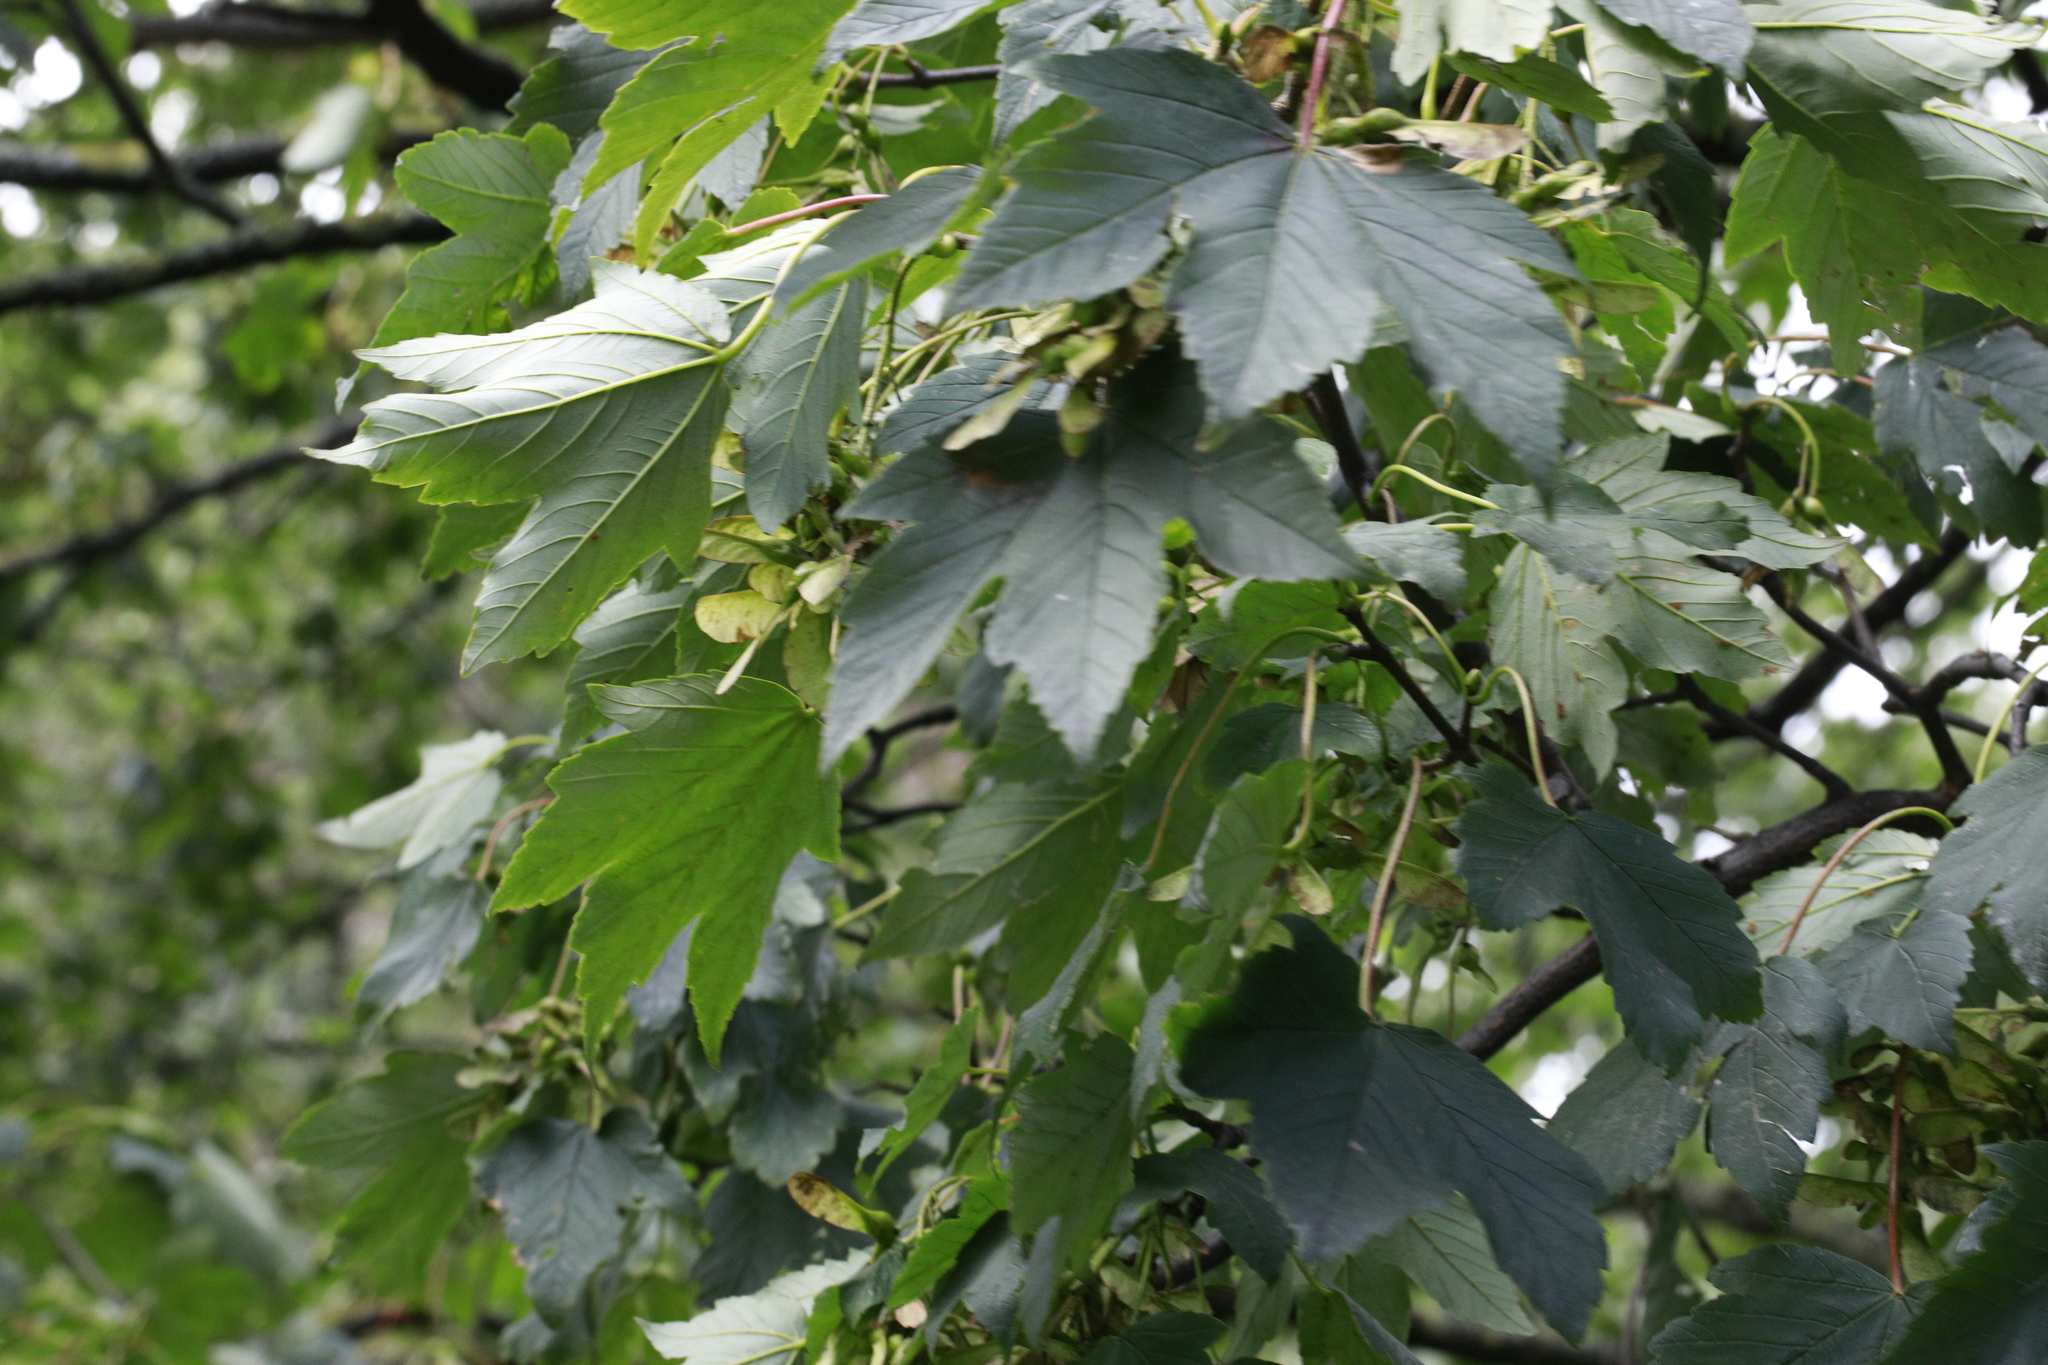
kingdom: Plantae
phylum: Tracheophyta
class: Magnoliopsida
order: Sapindales
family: Sapindaceae
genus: Acer
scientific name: Acer pseudoplatanus
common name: Sycamore
